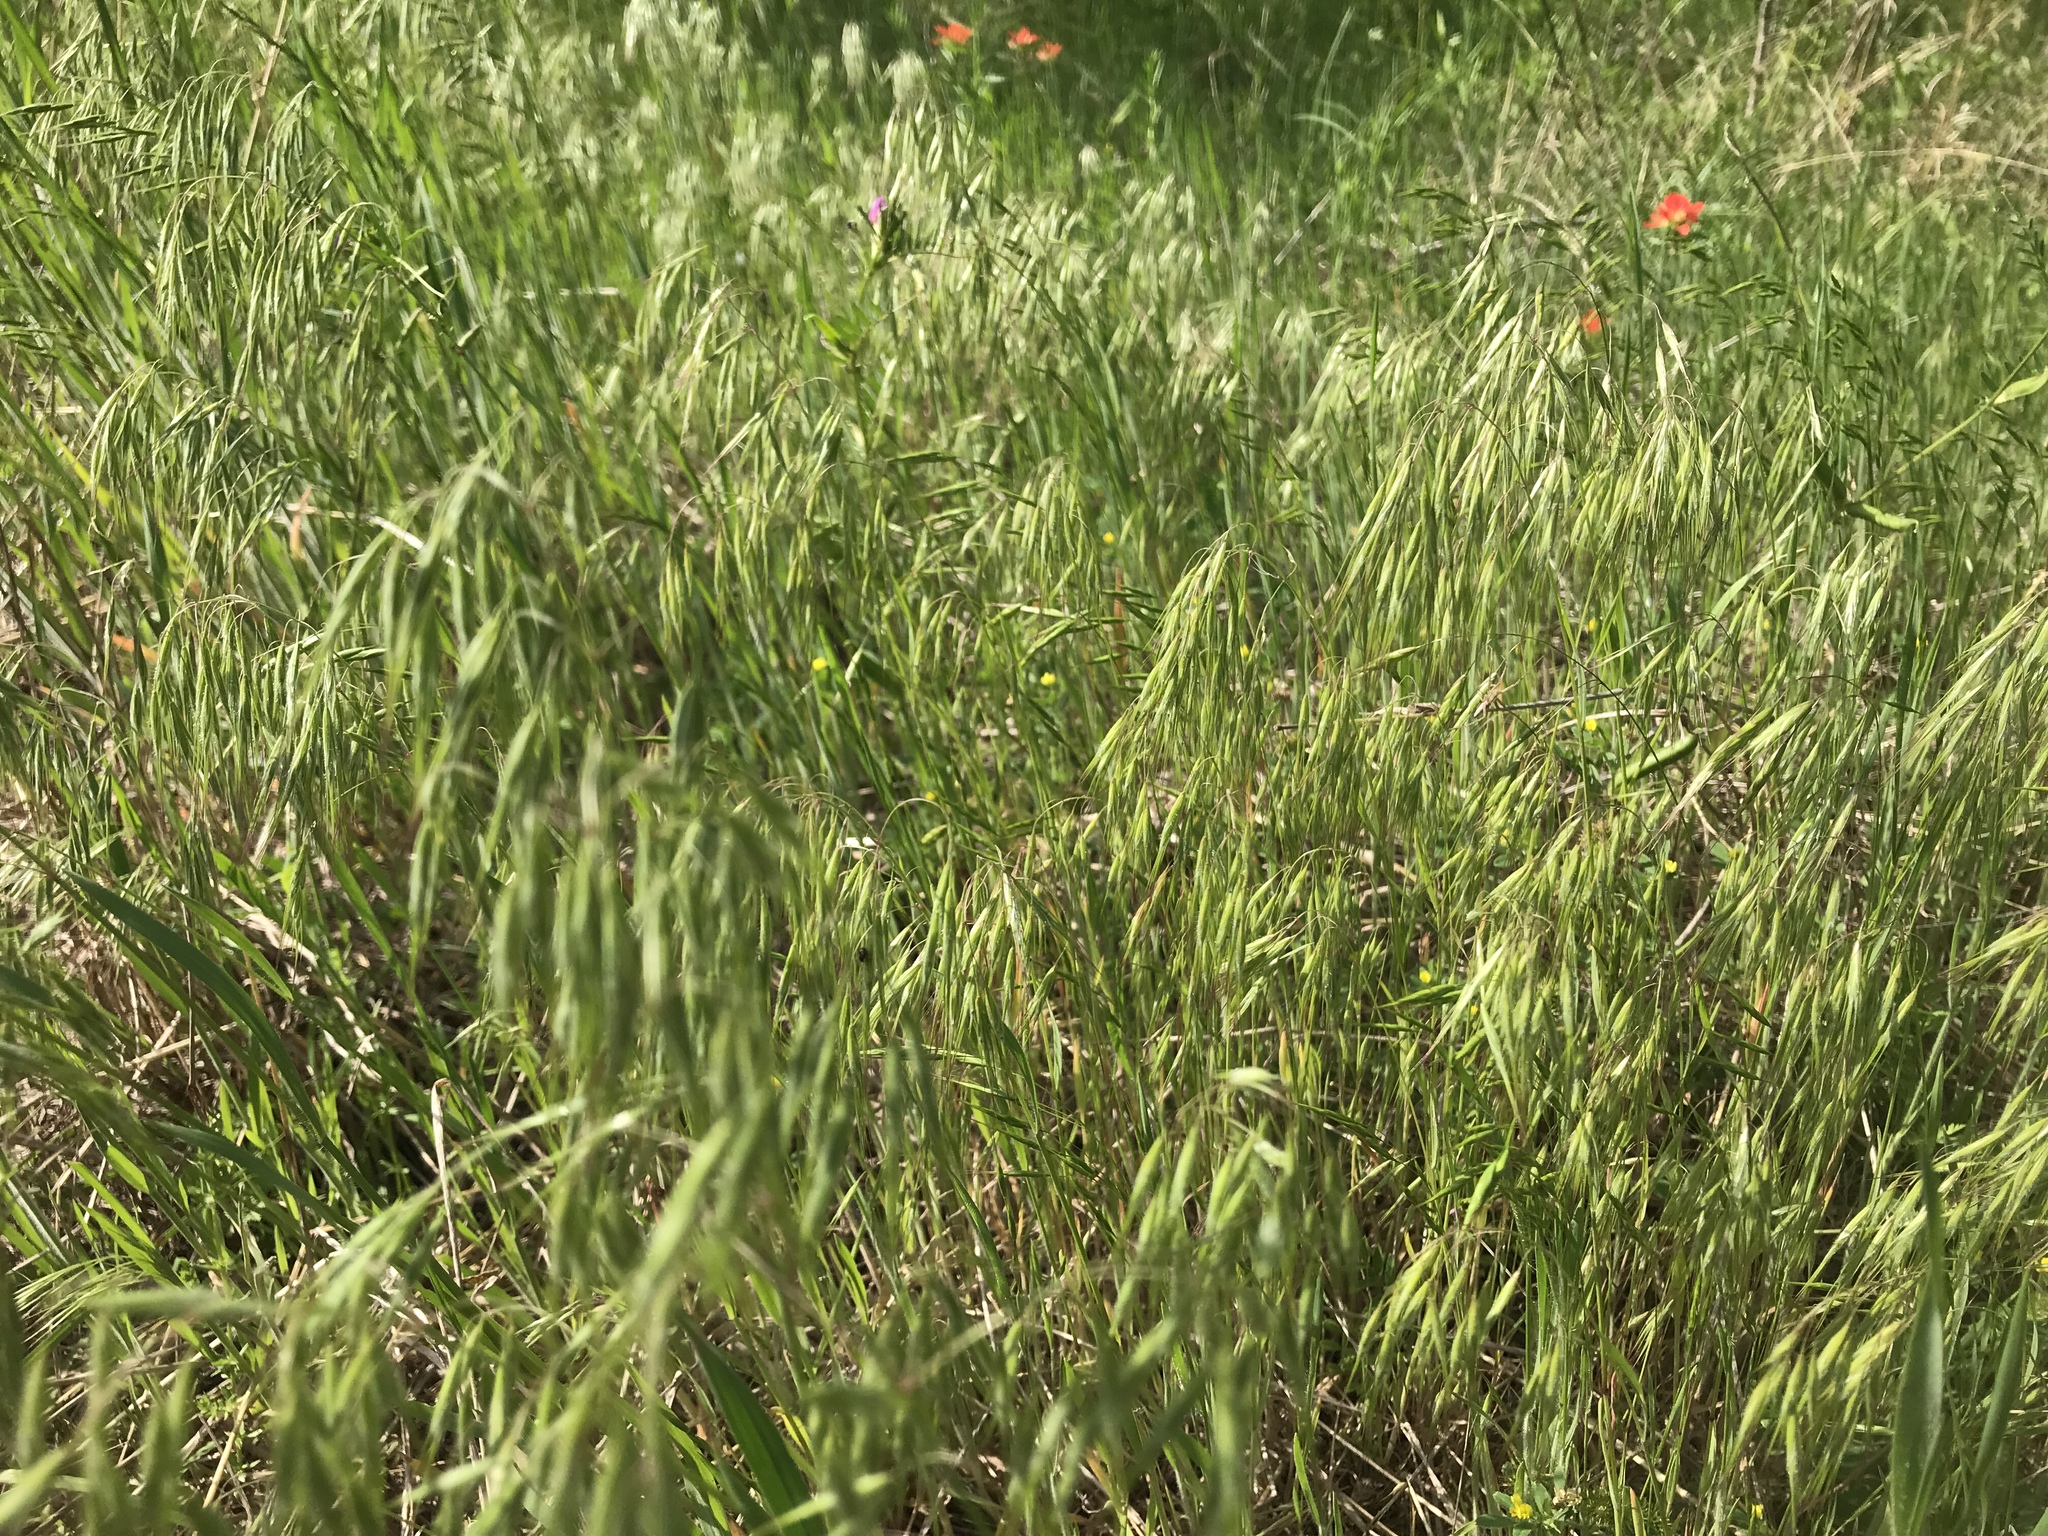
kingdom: Plantae
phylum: Tracheophyta
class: Liliopsida
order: Poales
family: Poaceae
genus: Bromus
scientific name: Bromus tectorum
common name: Cheatgrass
